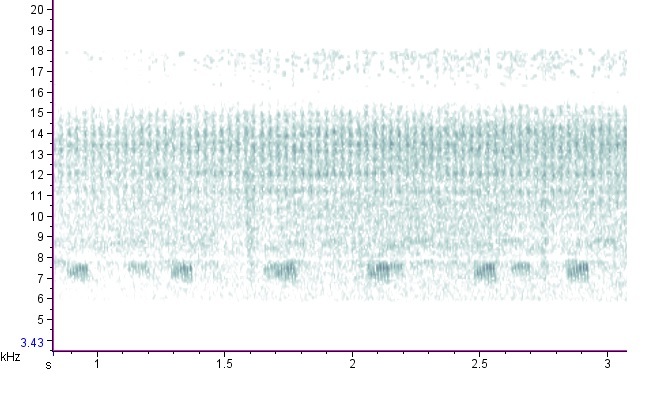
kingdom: Animalia
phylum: Arthropoda
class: Insecta
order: Orthoptera
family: Trigonidiidae
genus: Allonemobius
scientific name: Allonemobius socius
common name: Southern ground cricket
